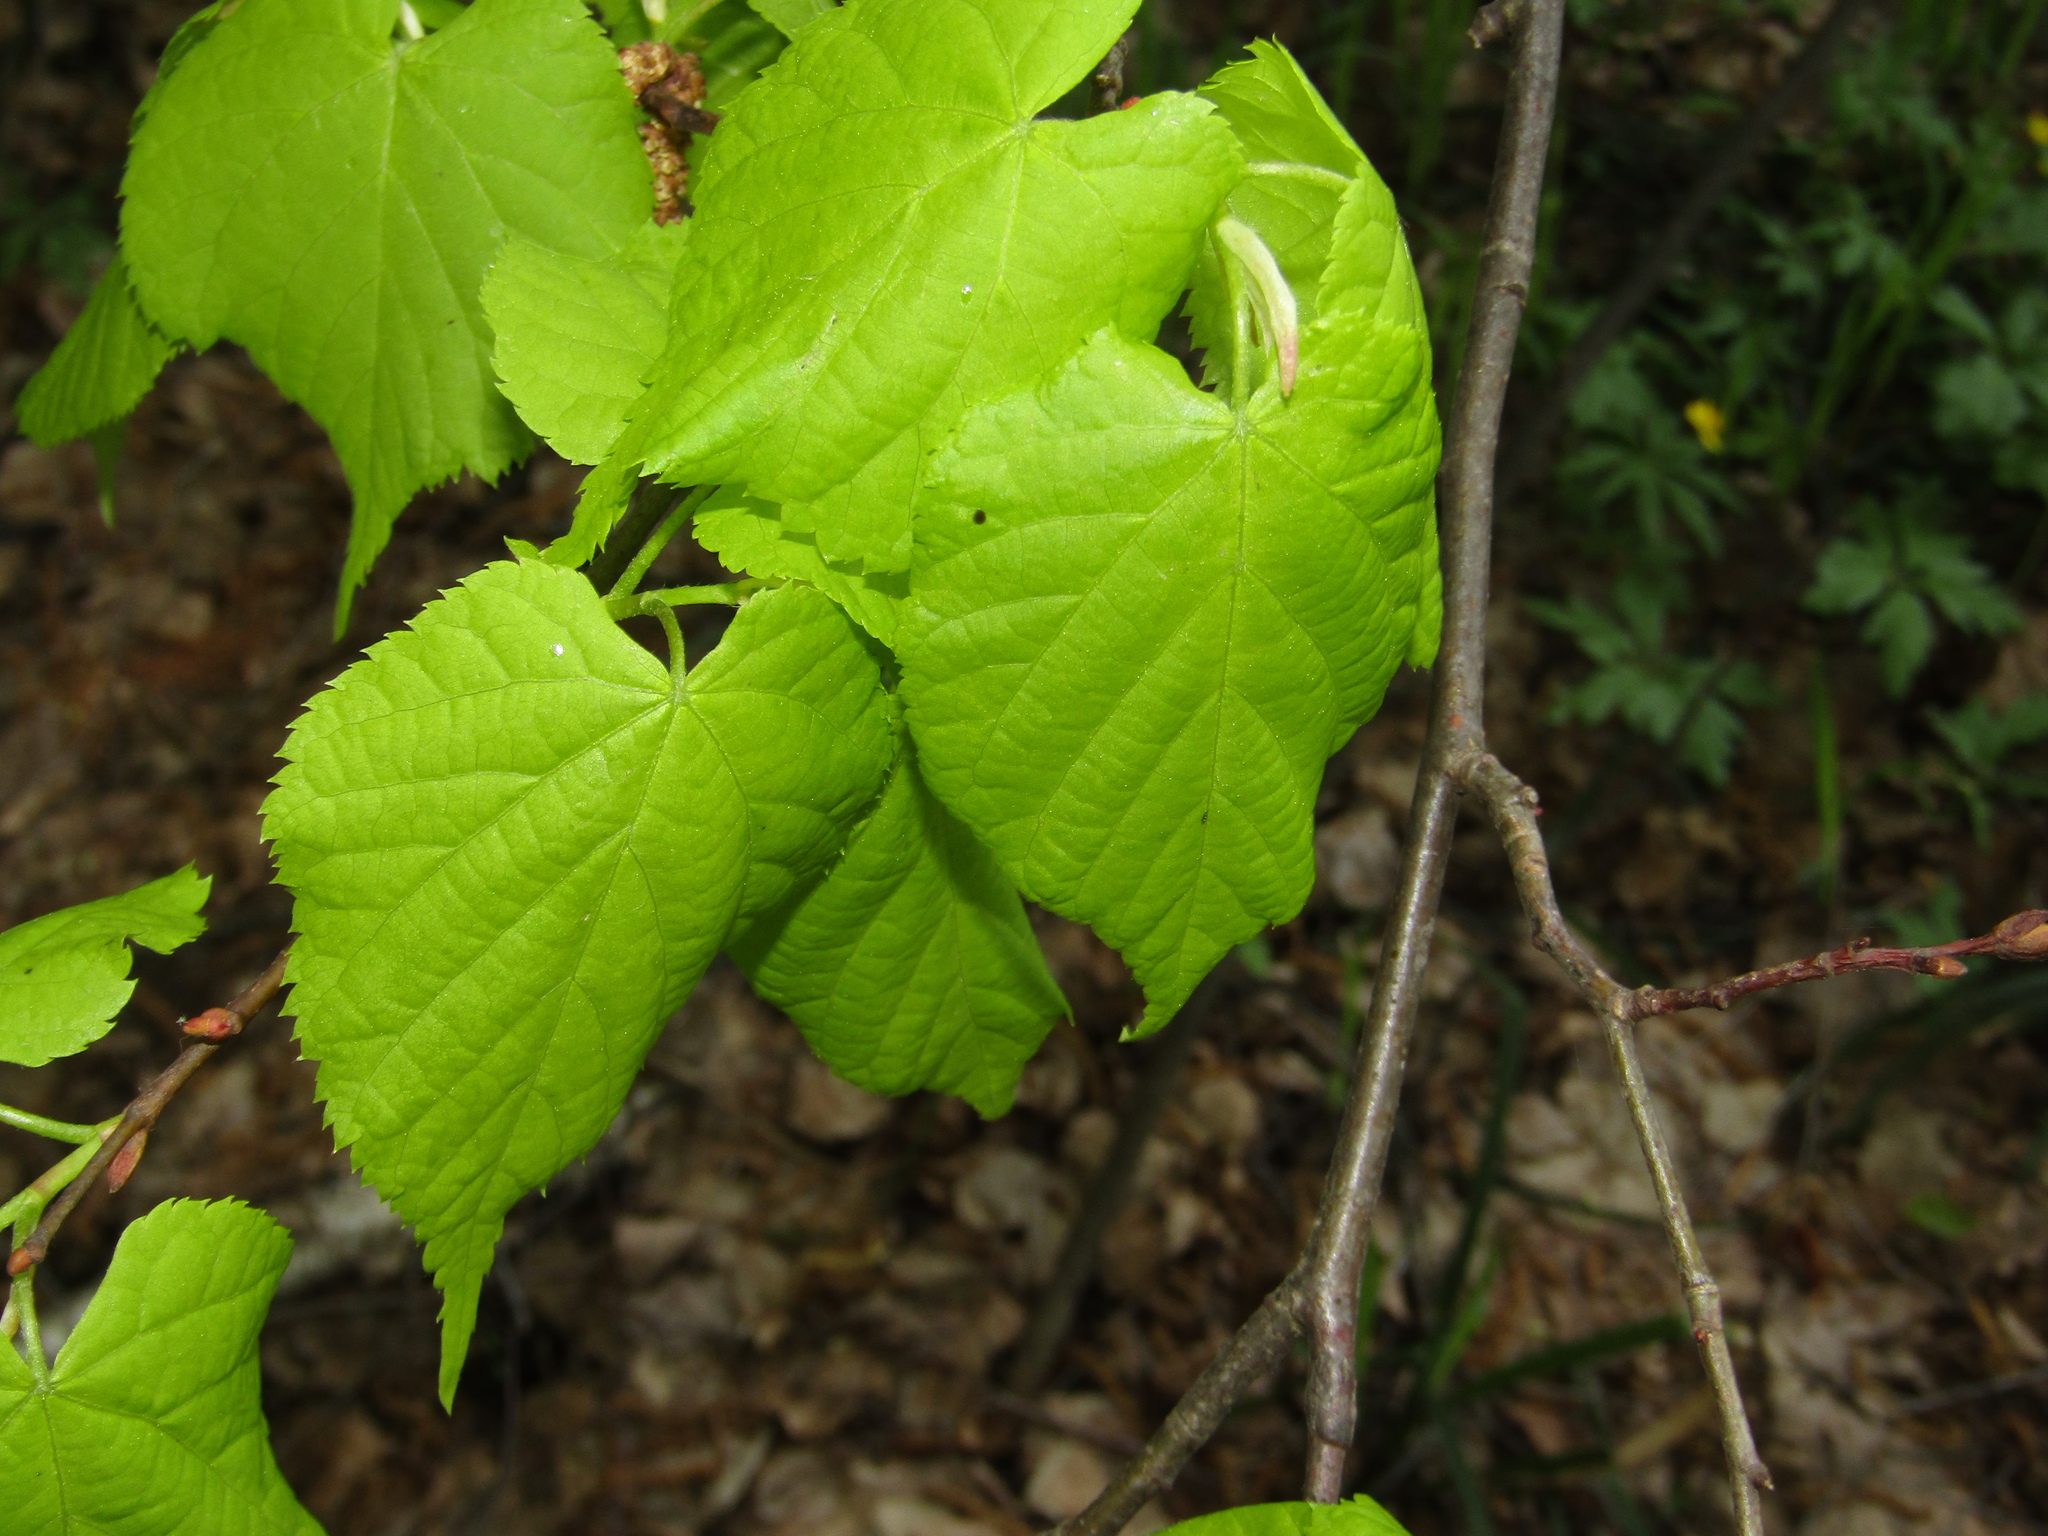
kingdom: Plantae
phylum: Tracheophyta
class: Magnoliopsida
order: Malvales
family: Malvaceae
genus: Tilia
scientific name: Tilia cordata
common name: Small-leaved lime
